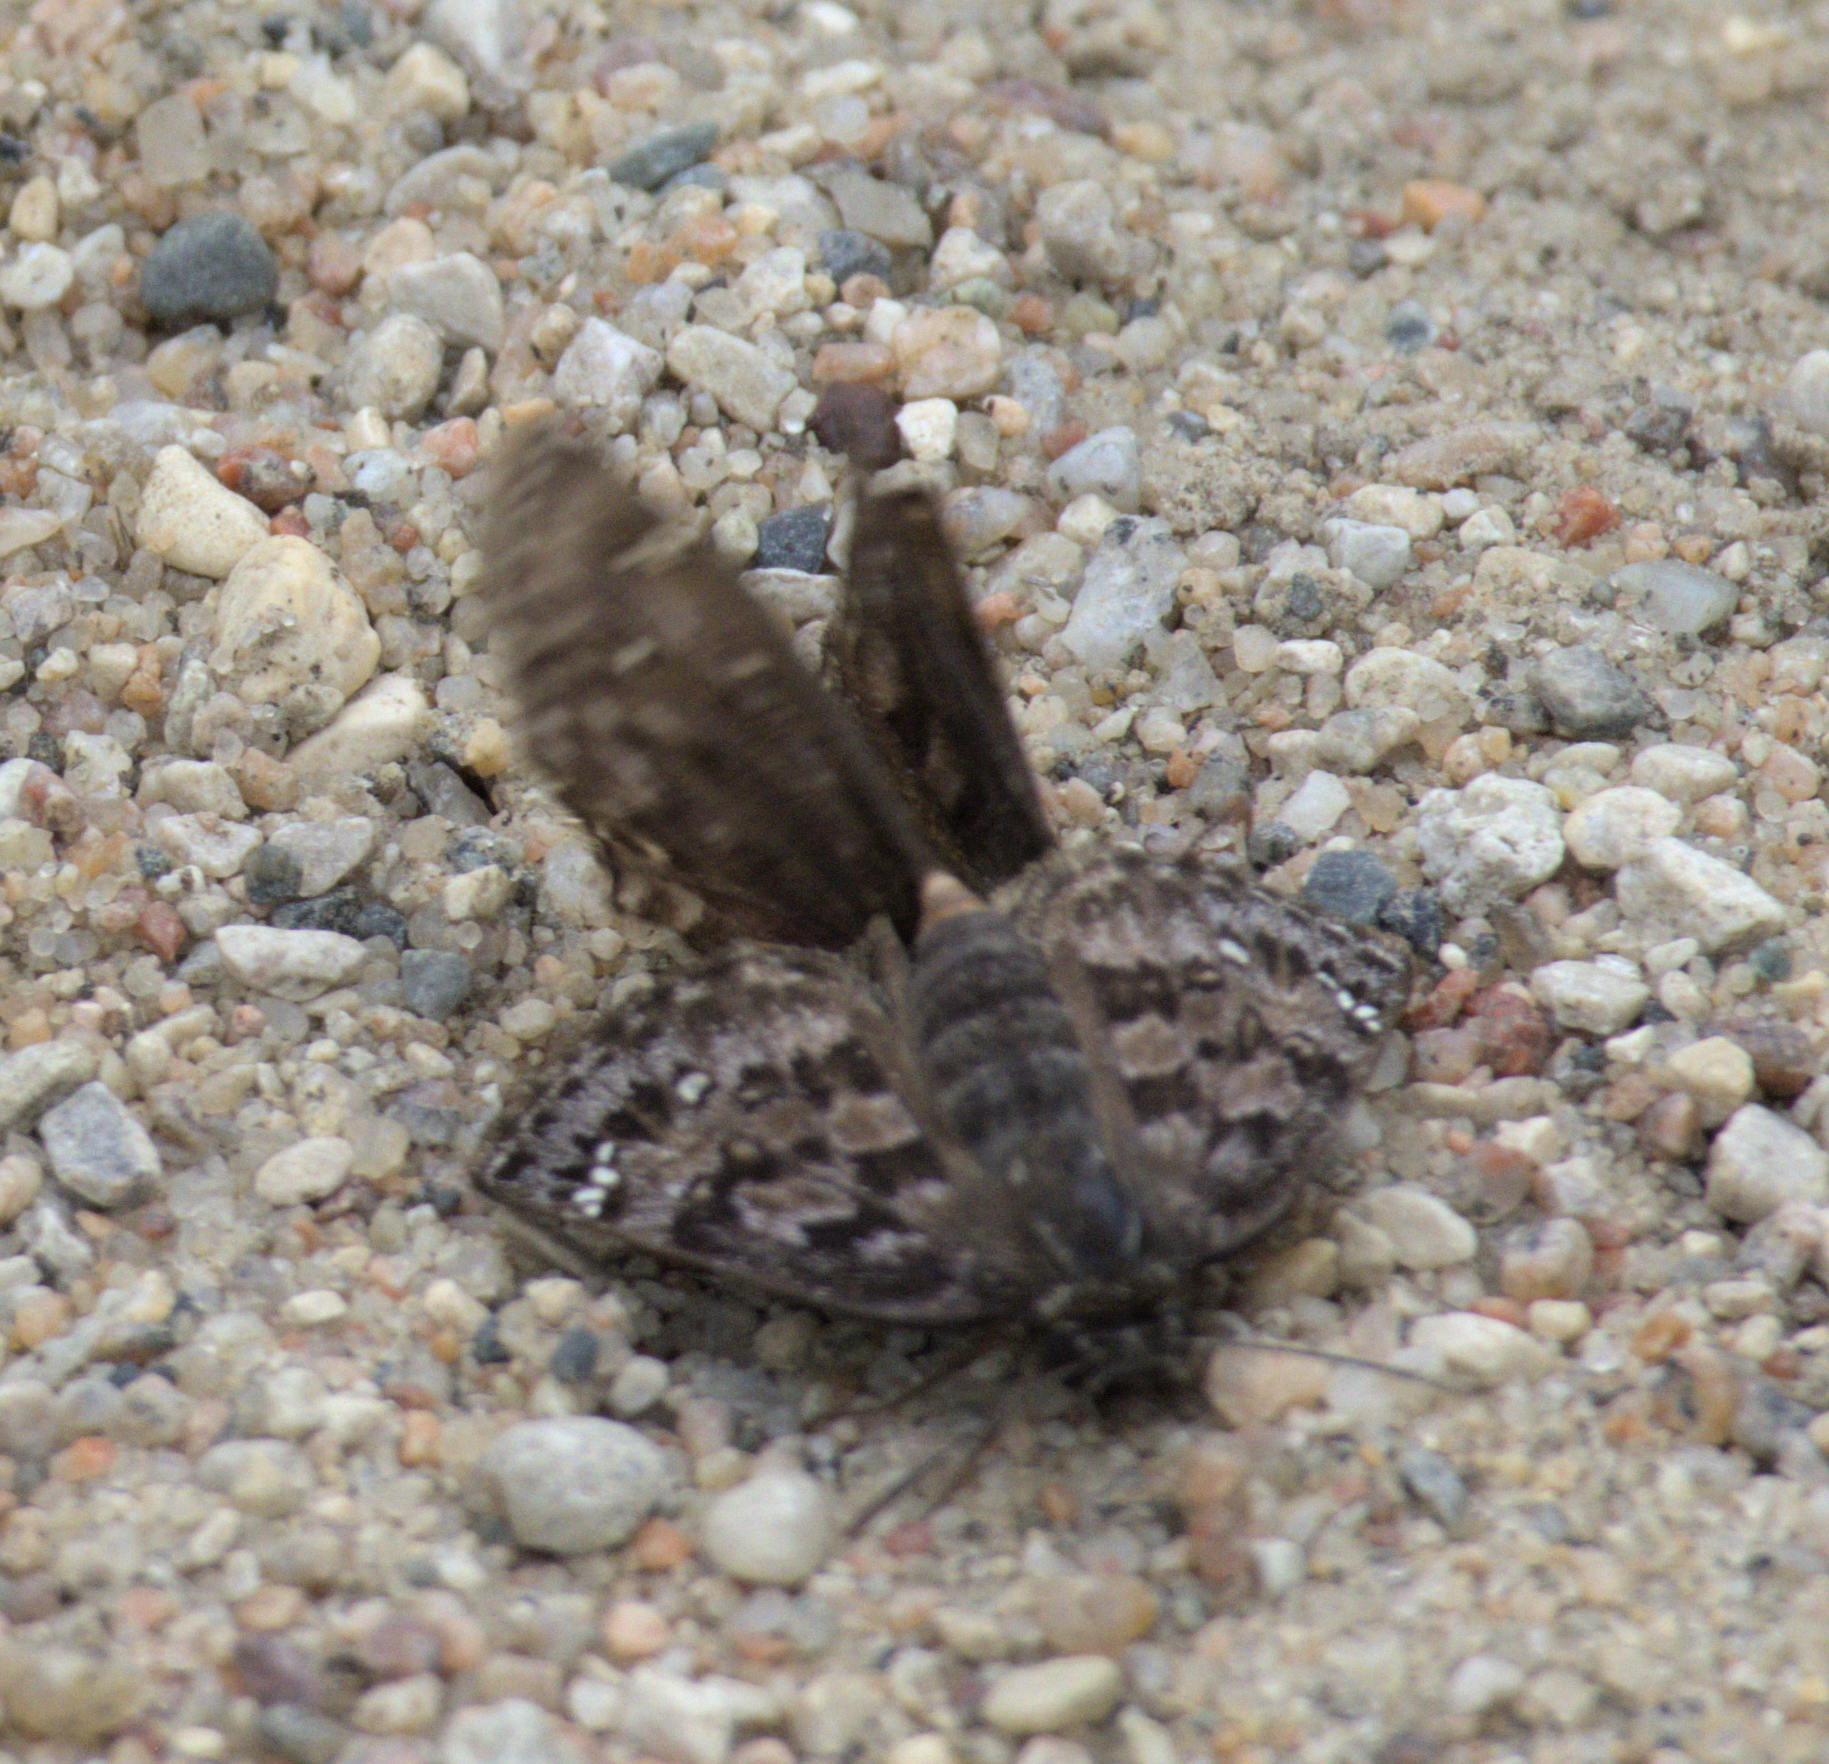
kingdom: Animalia
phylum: Arthropoda
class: Insecta
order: Lepidoptera
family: Hesperiidae
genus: Erynnis
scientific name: Erynnis martialis
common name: Mottled duskywing
